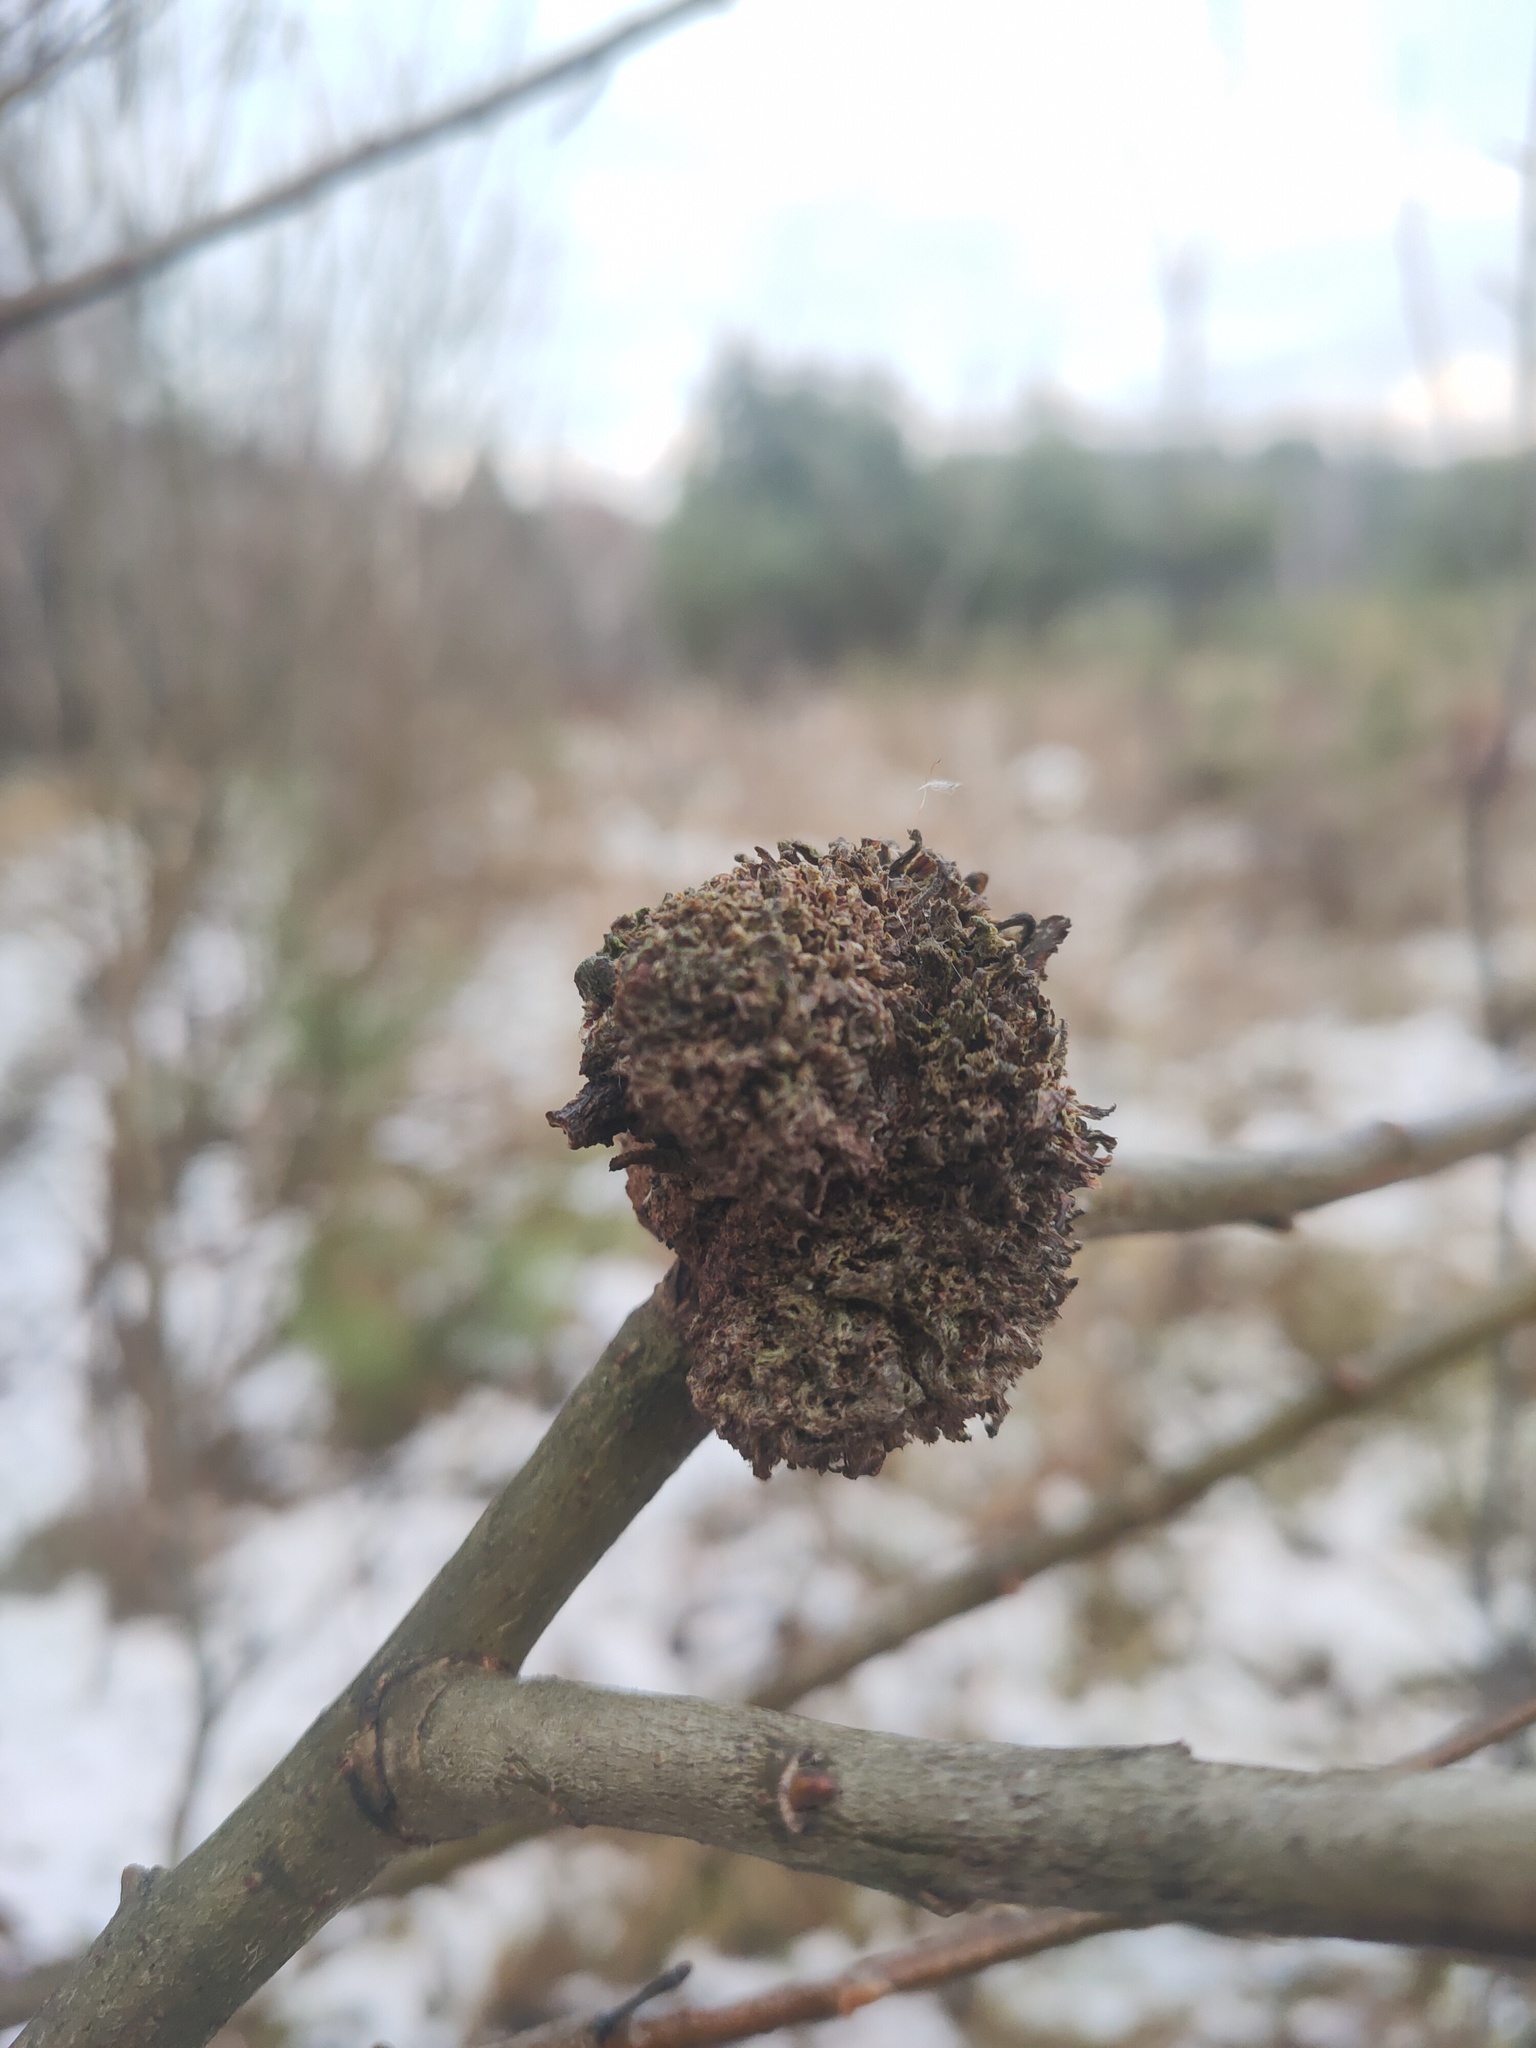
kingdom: Bacteria
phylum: Proteobacteria
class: Alphaproteobacteria
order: Rhizobiales
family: Rhizobiaceae
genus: Rhizobium
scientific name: Rhizobium Agrobacterium radiobacter
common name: Bacterial crown gall
